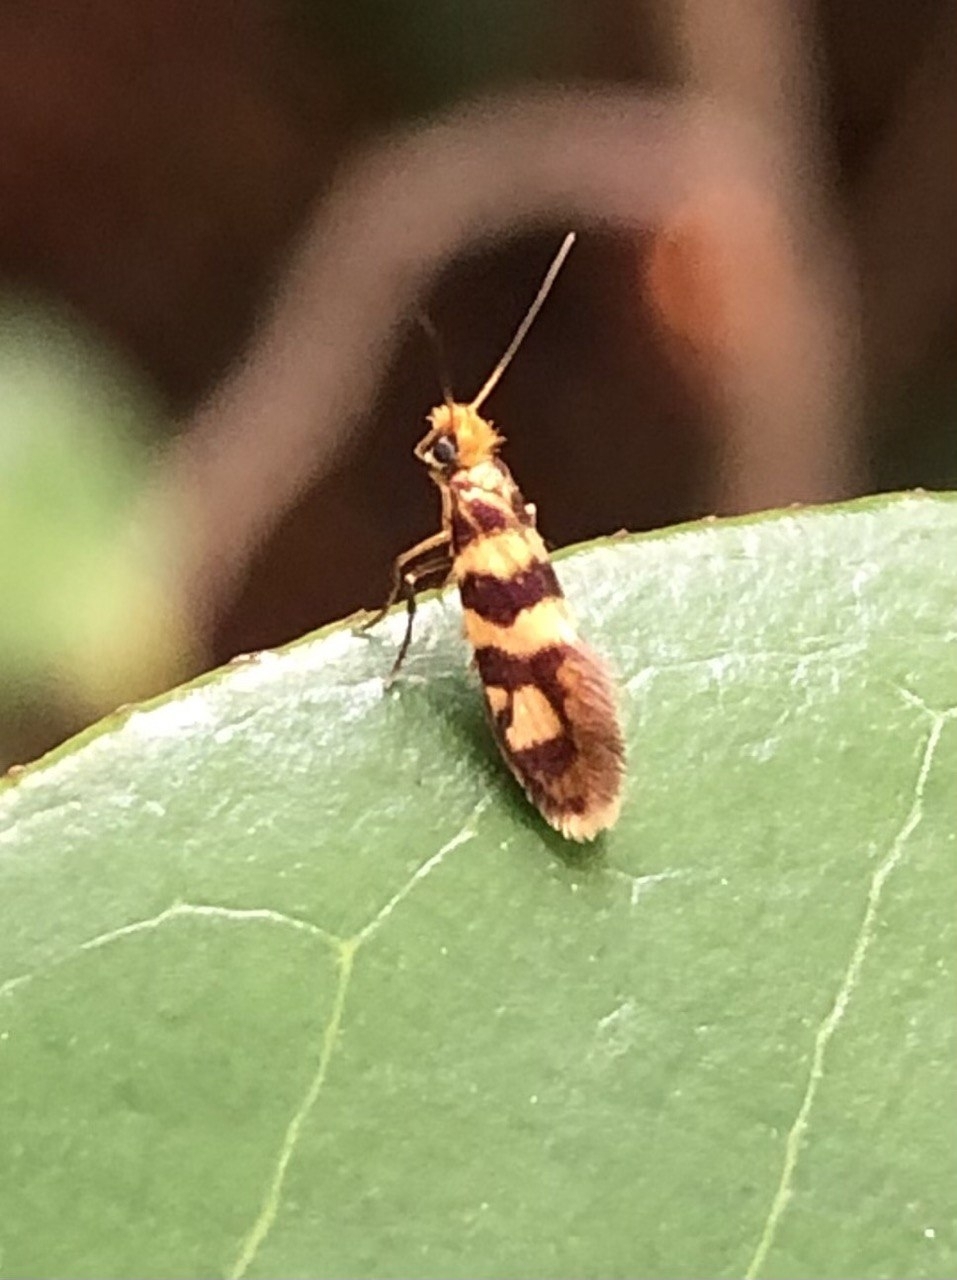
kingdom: Animalia
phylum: Arthropoda
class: Insecta
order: Lepidoptera
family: Micropterigidae
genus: Micropterix
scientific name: Micropterix rothenbachii
